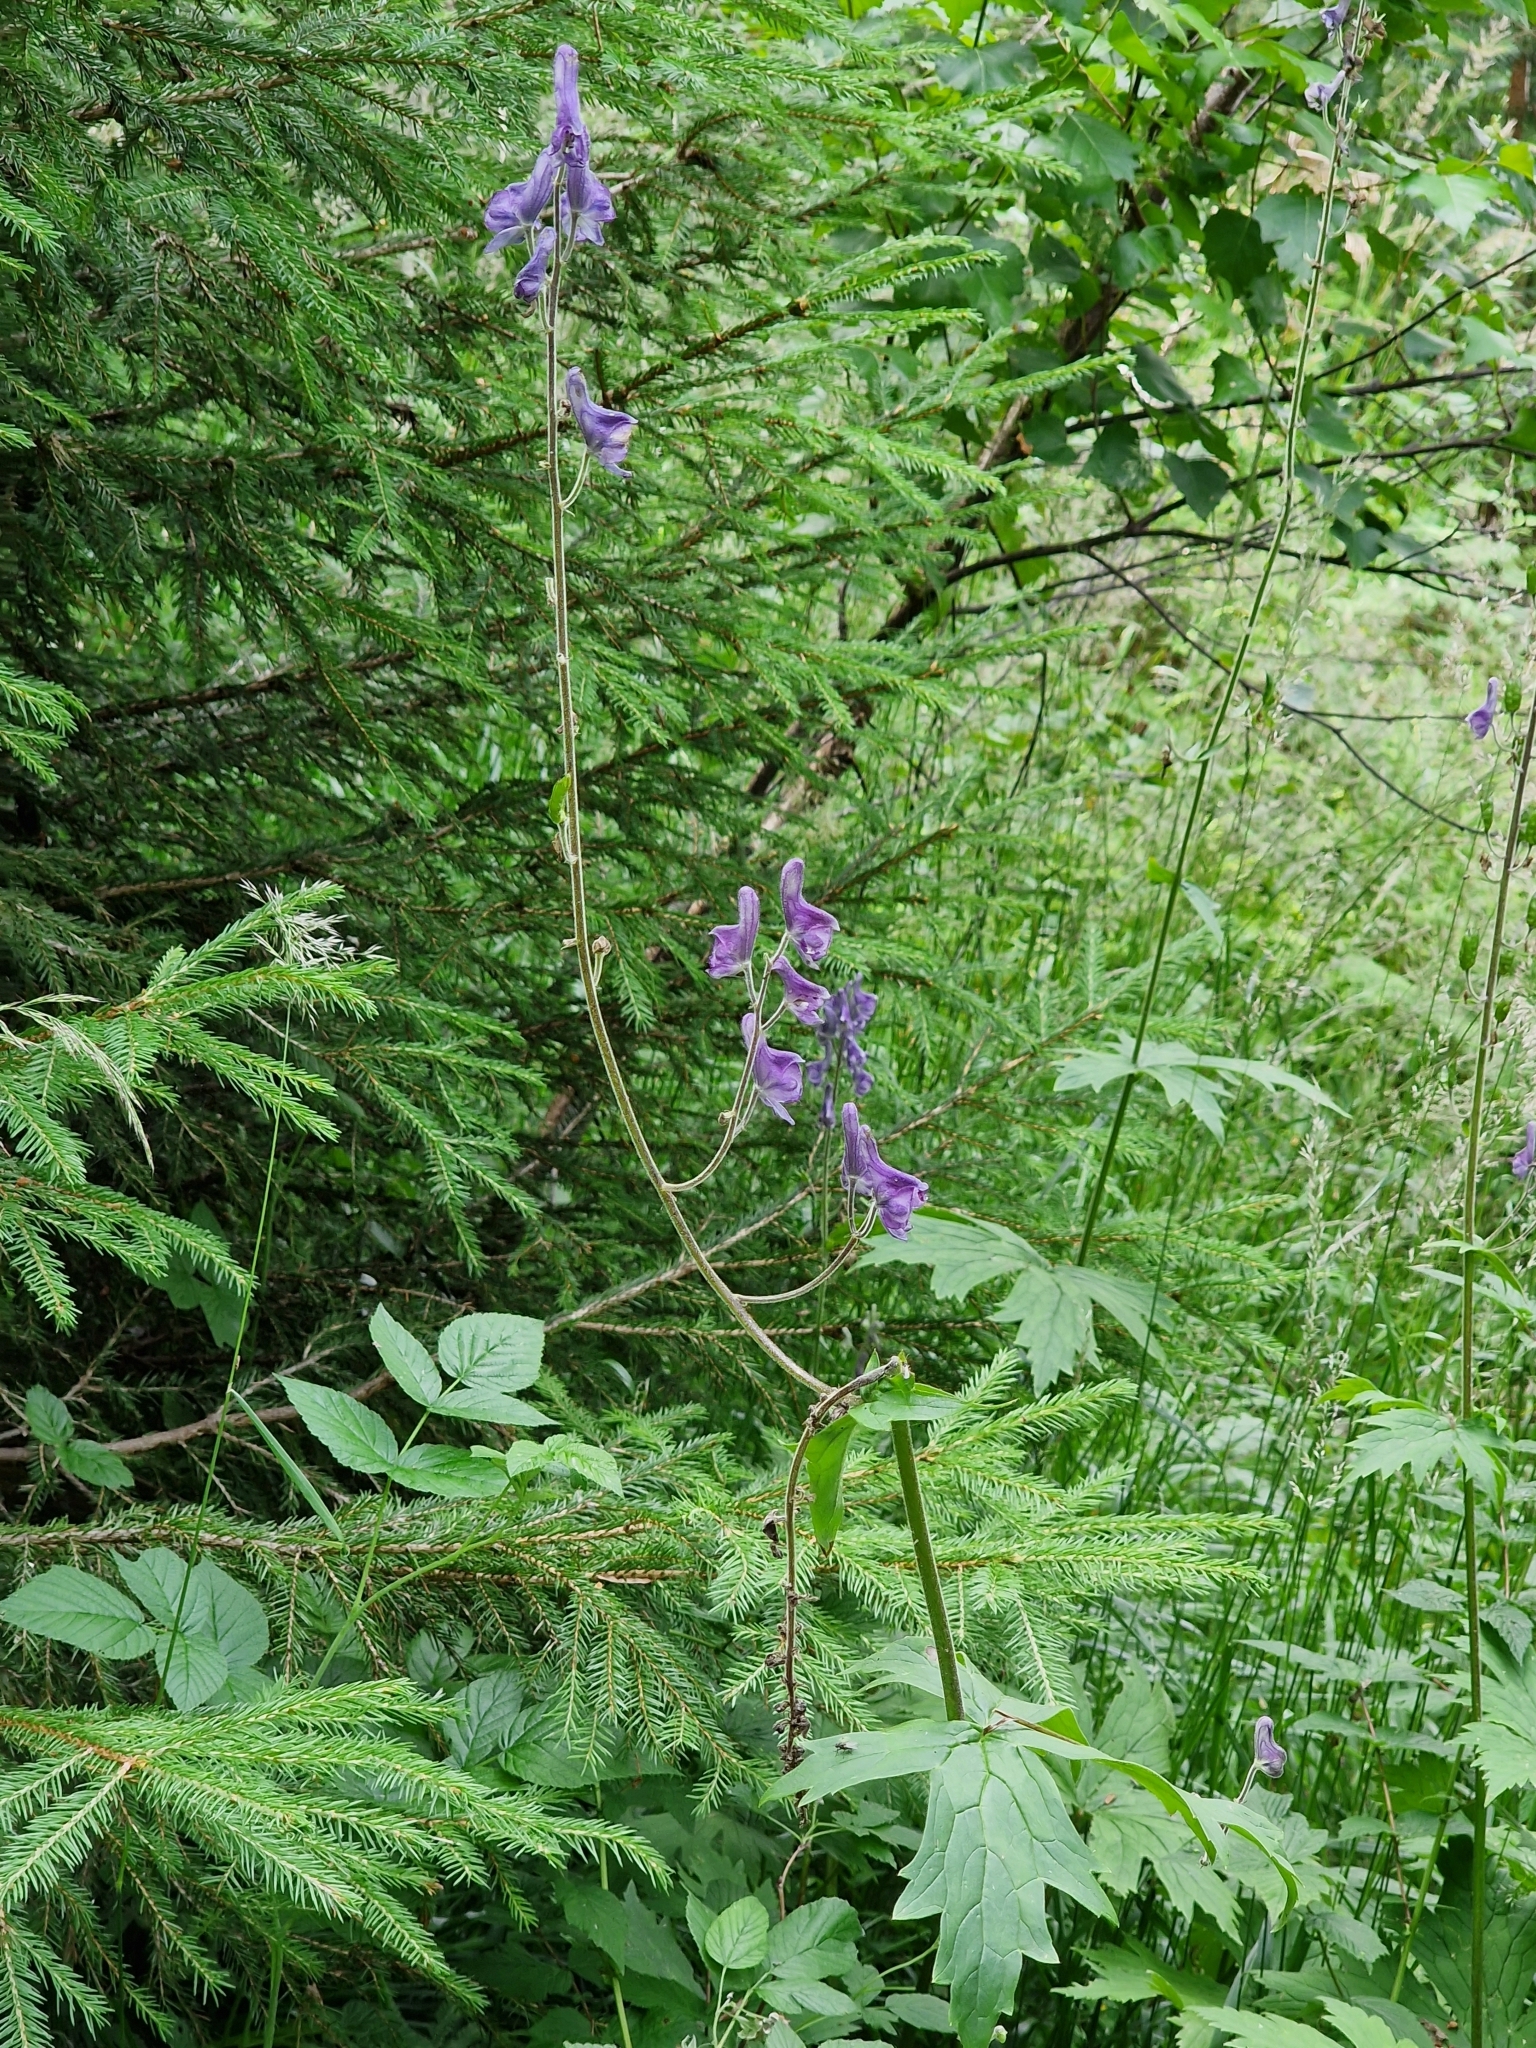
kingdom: Plantae
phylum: Tracheophyta
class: Magnoliopsida
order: Ranunculales
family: Ranunculaceae
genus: Aconitum
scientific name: Aconitum septentrionale
